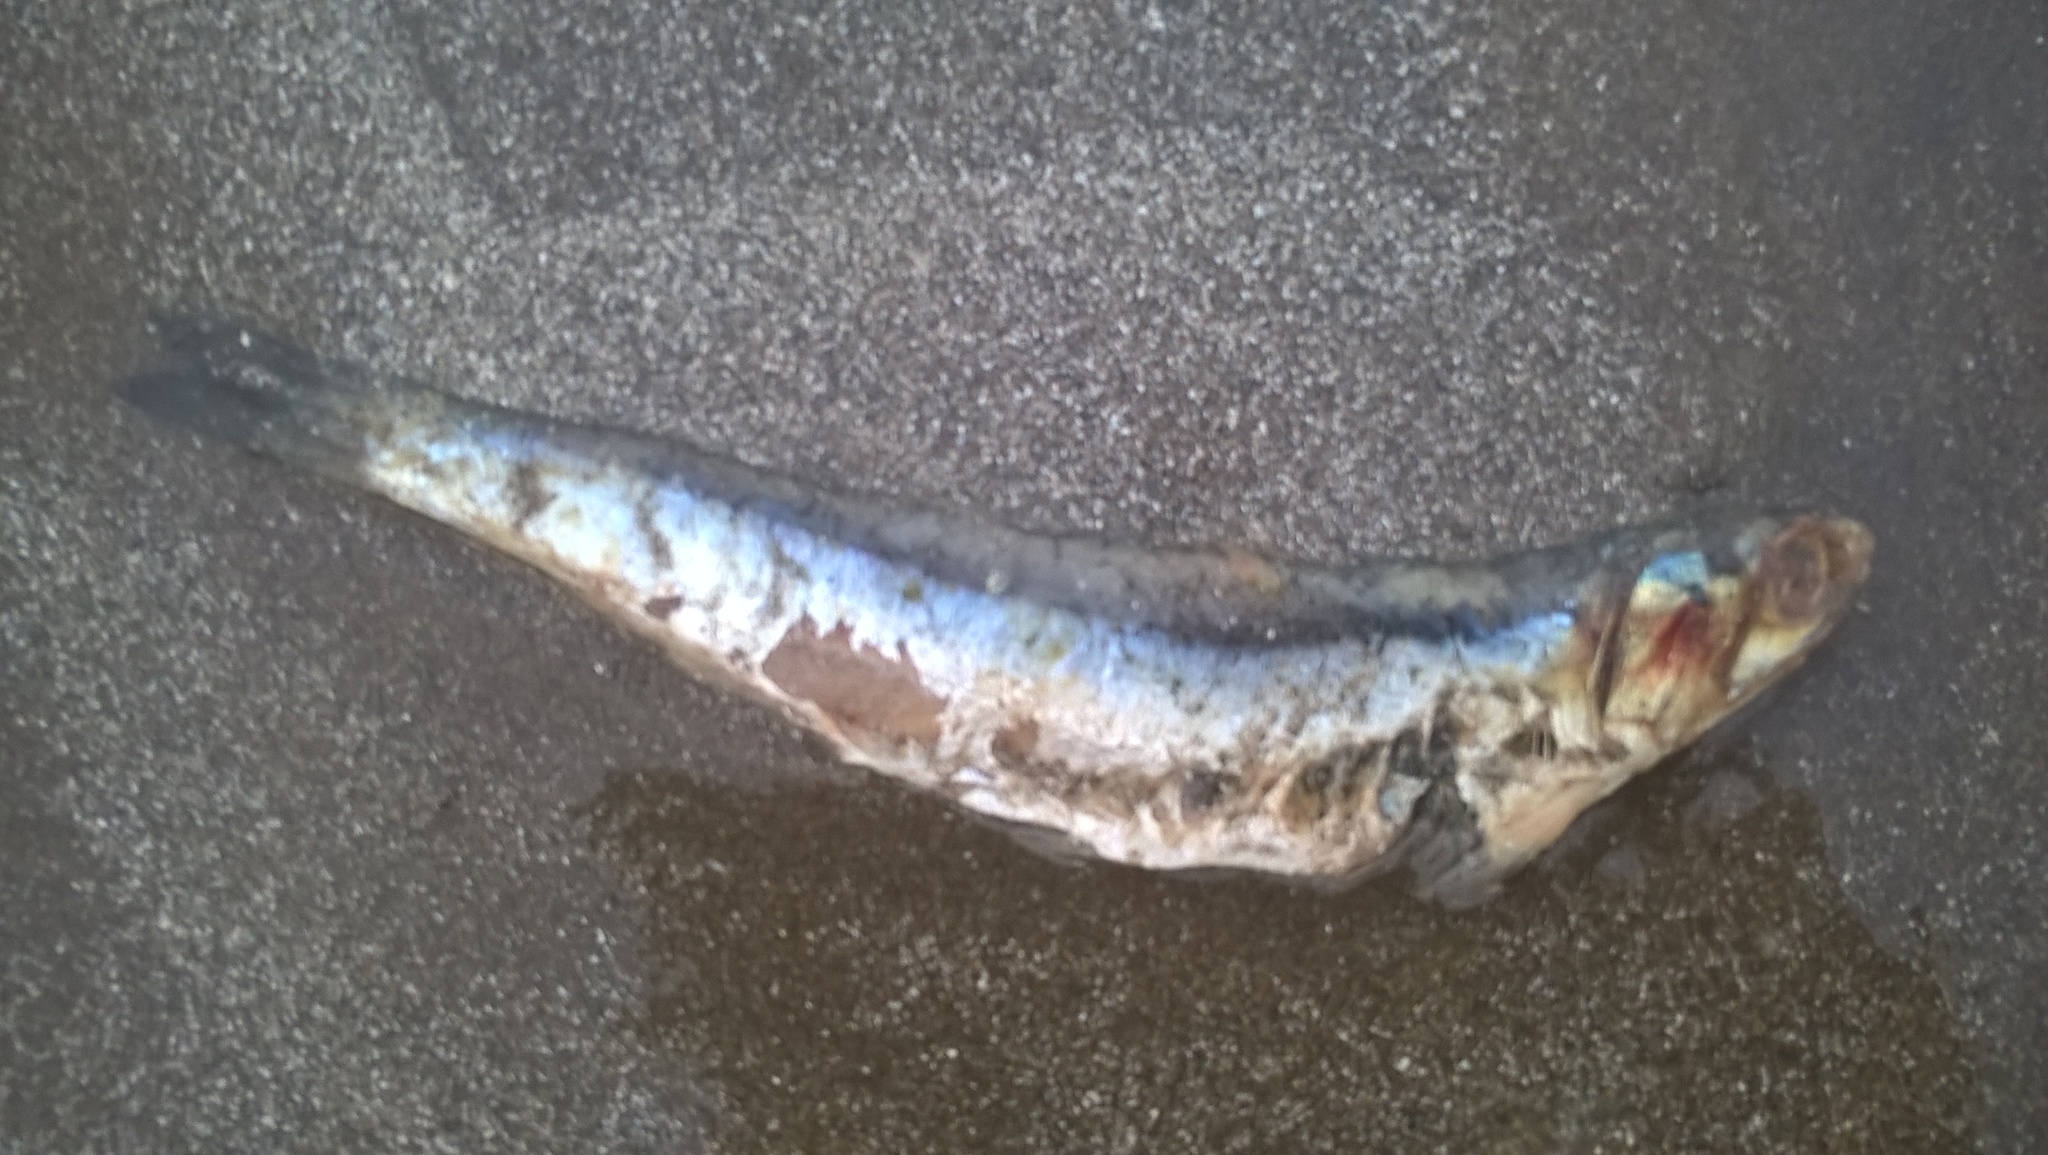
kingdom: Animalia
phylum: Chordata
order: Clupeiformes
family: Engraulidae
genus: Engraulis
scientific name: Engraulis anchoita
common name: Argentine anchovy
